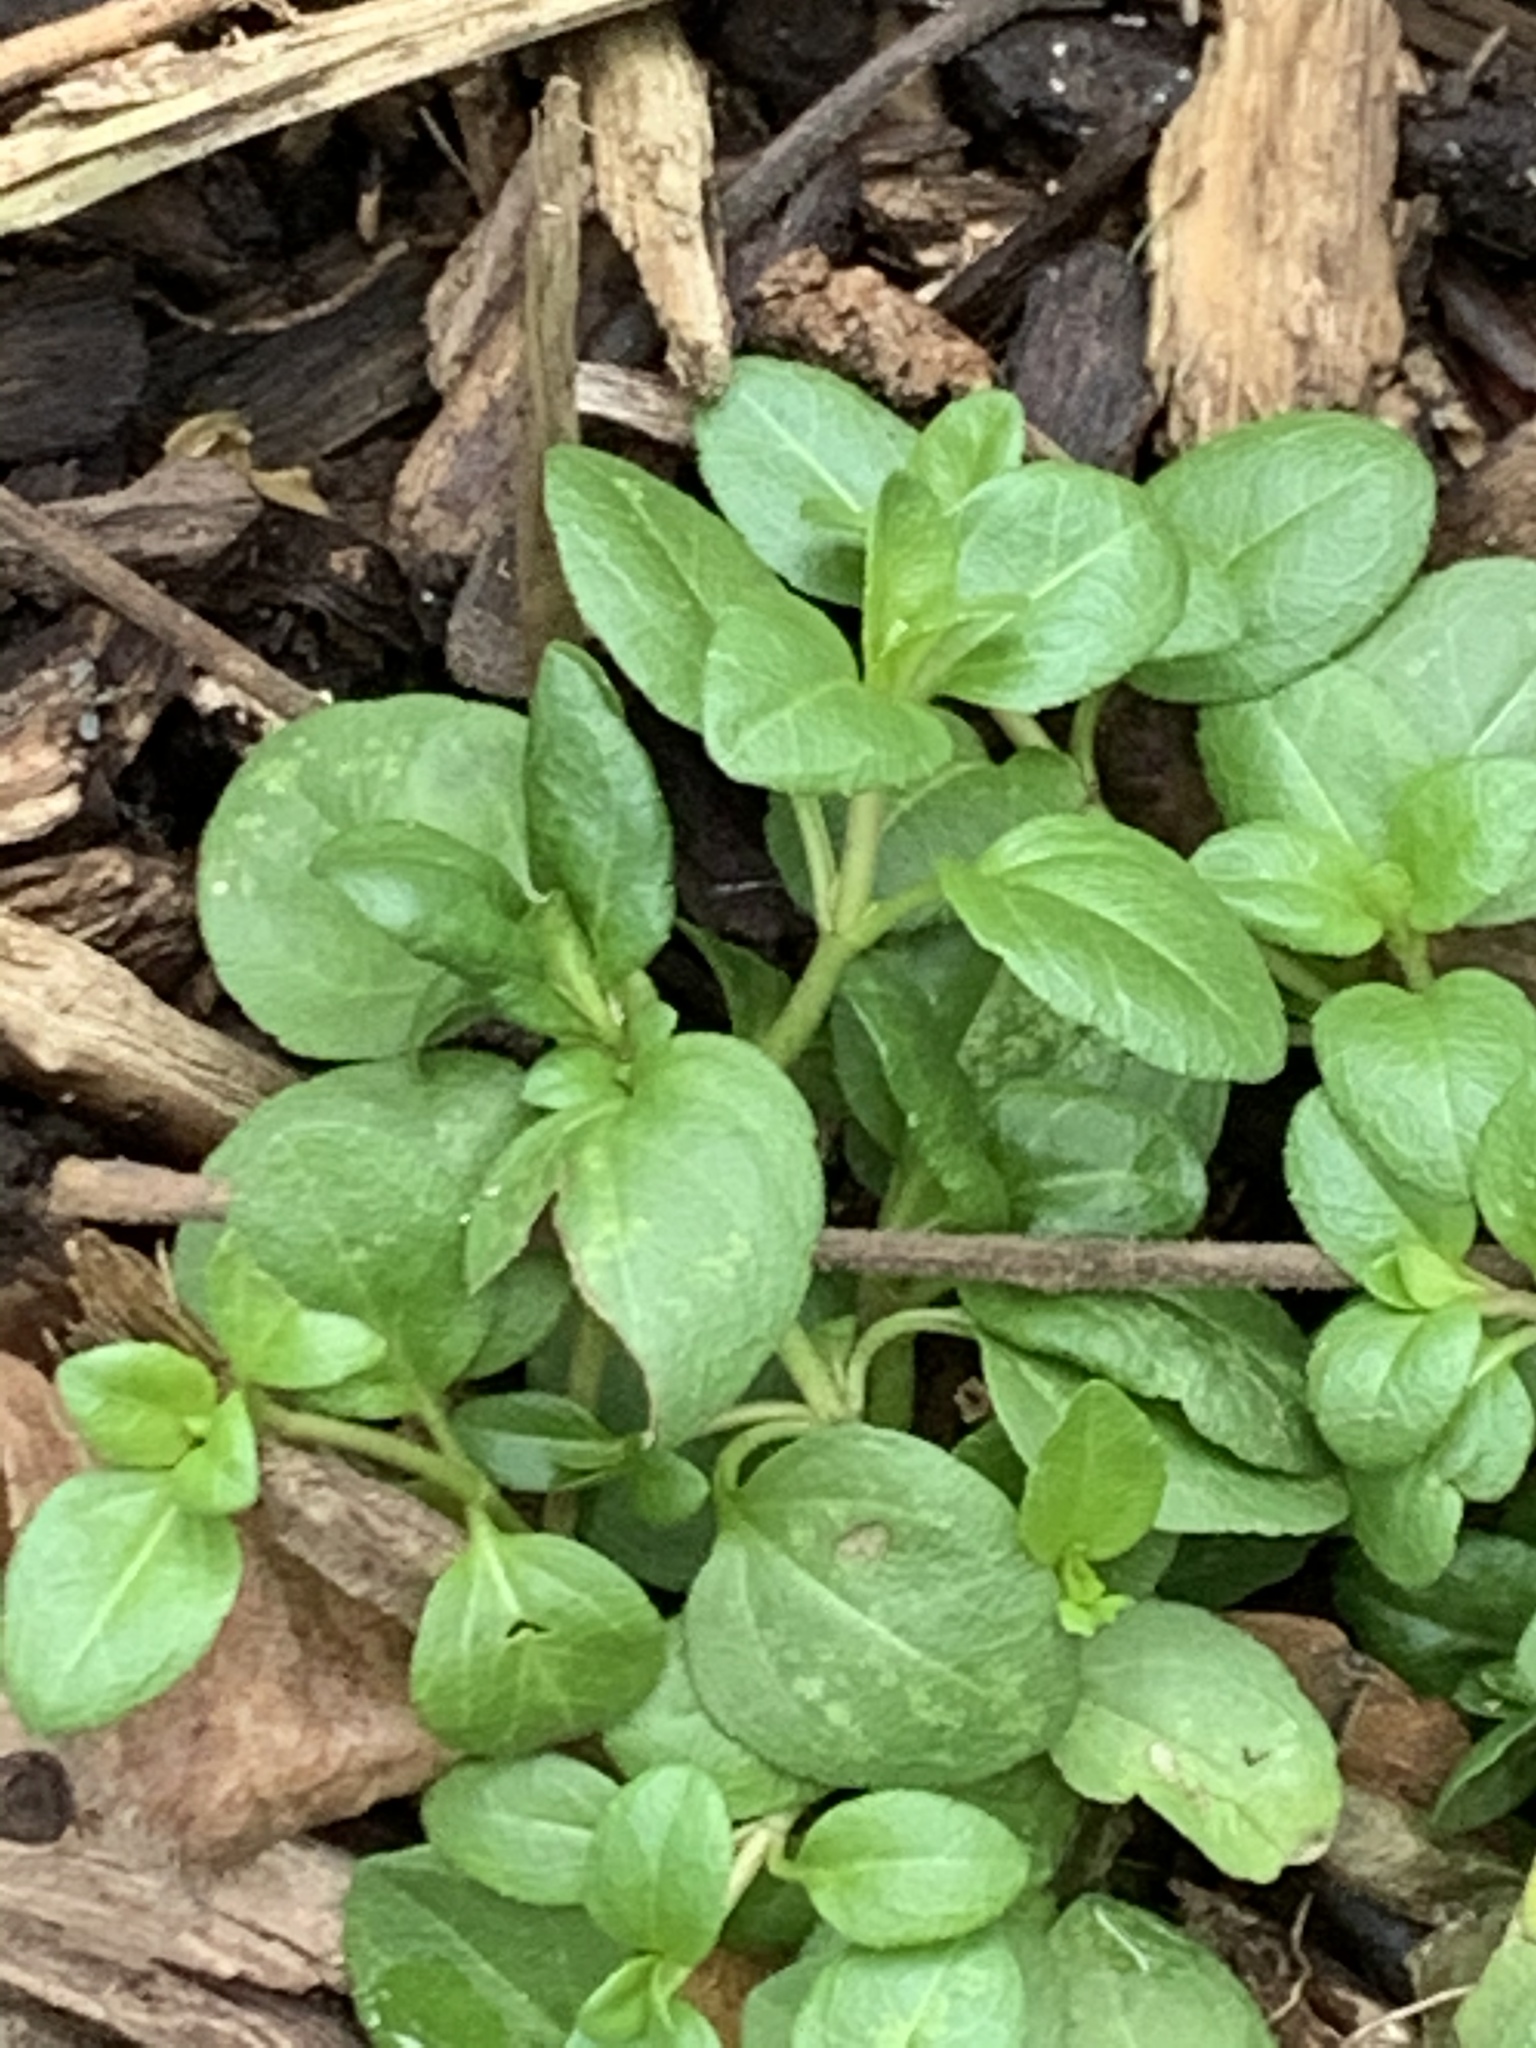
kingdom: Plantae
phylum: Tracheophyta
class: Magnoliopsida
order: Lamiales
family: Plantaginaceae
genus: Veronica
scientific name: Veronica serpyllifolia
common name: Thyme-leaved speedwell
